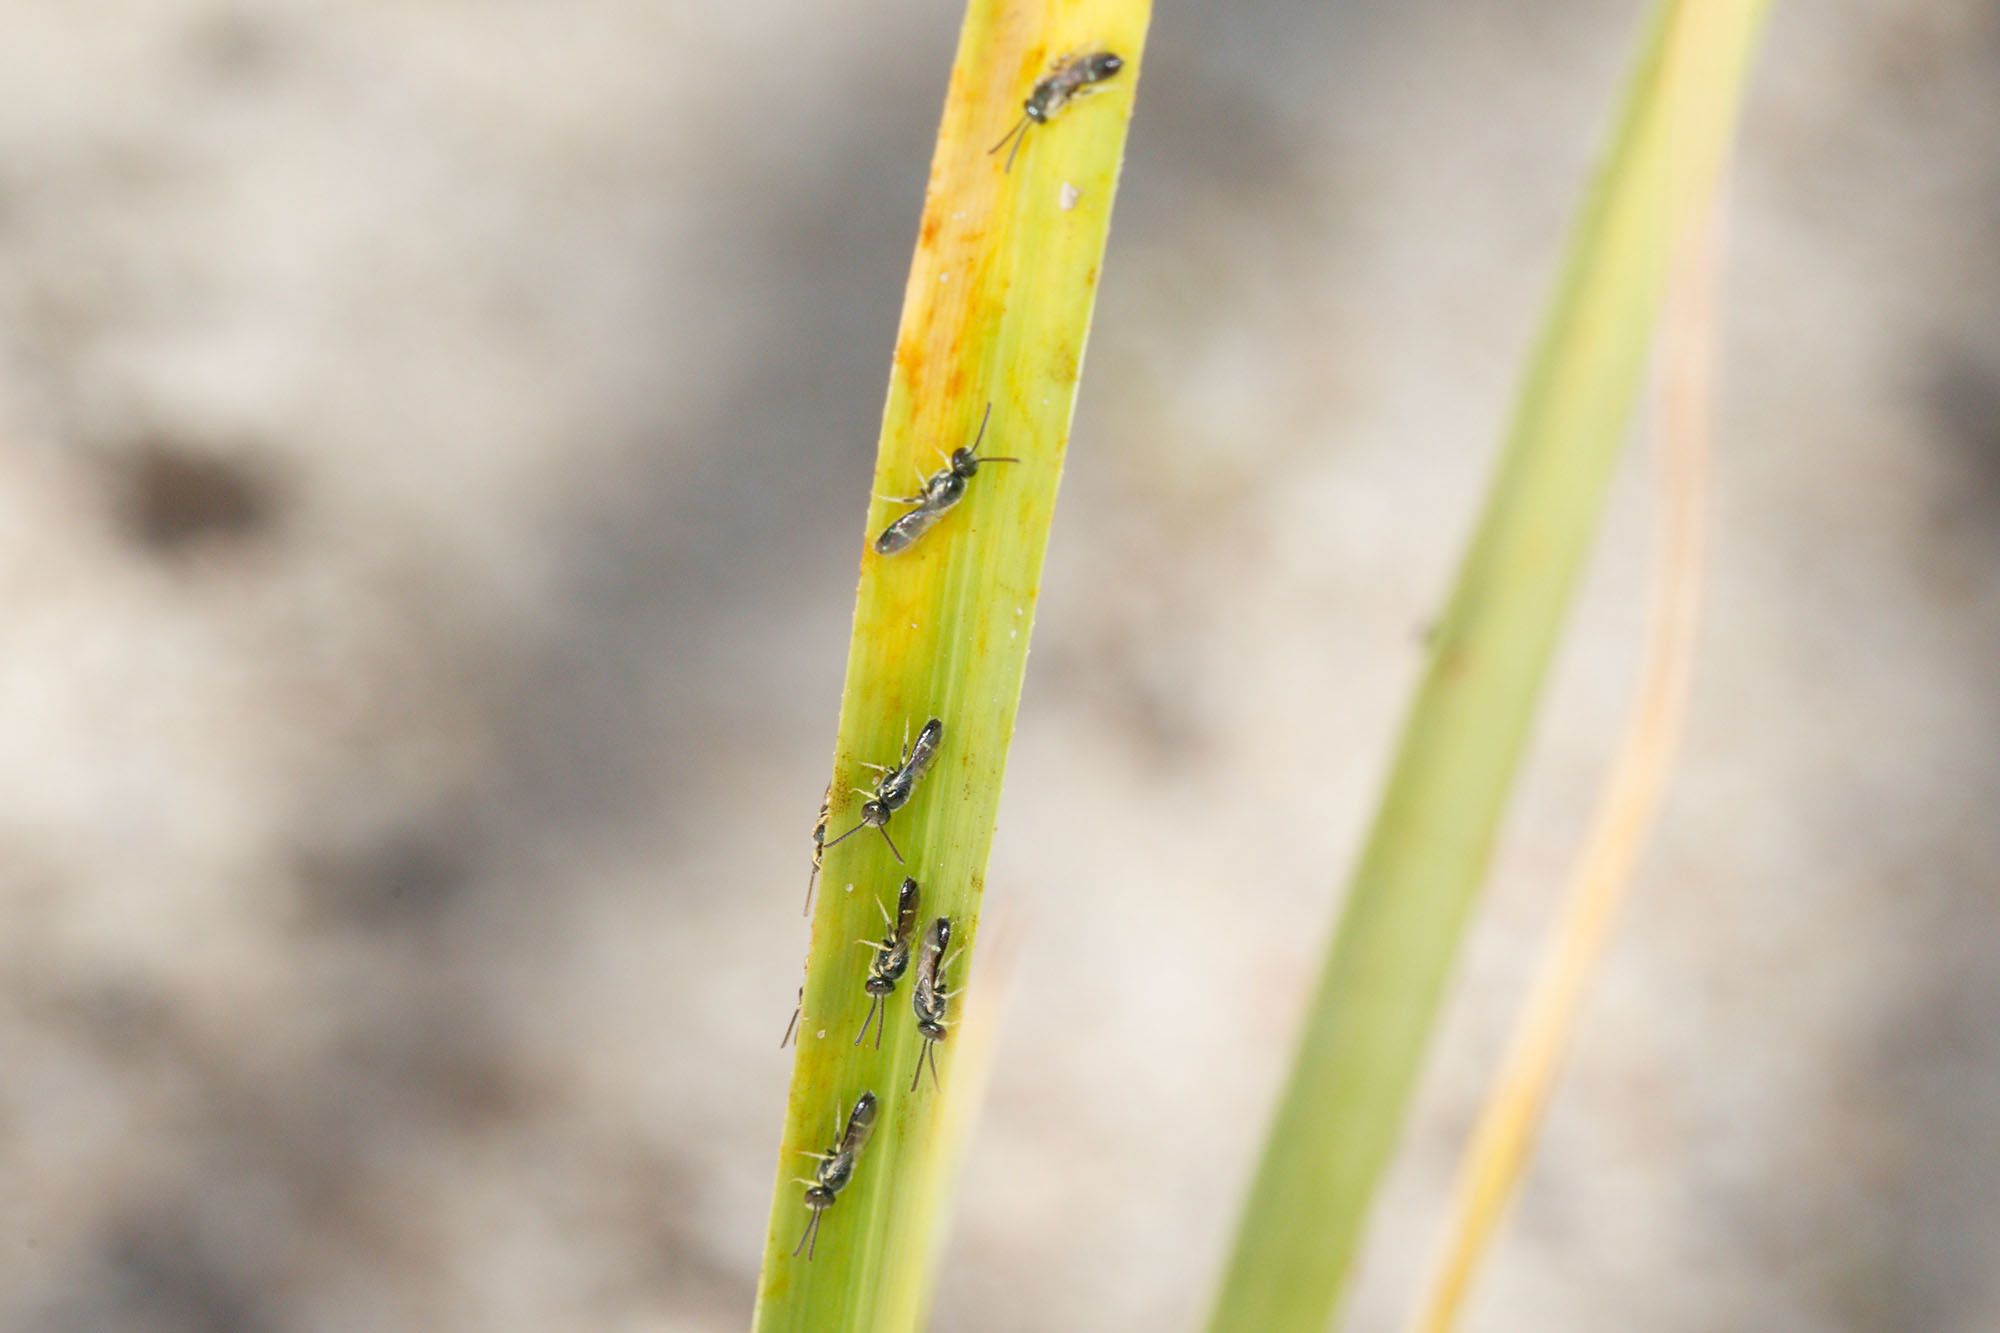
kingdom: Animalia
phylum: Arthropoda
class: Insecta
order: Hymenoptera
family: Halictidae
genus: Ceylalictus
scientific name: Ceylalictus perditellus
